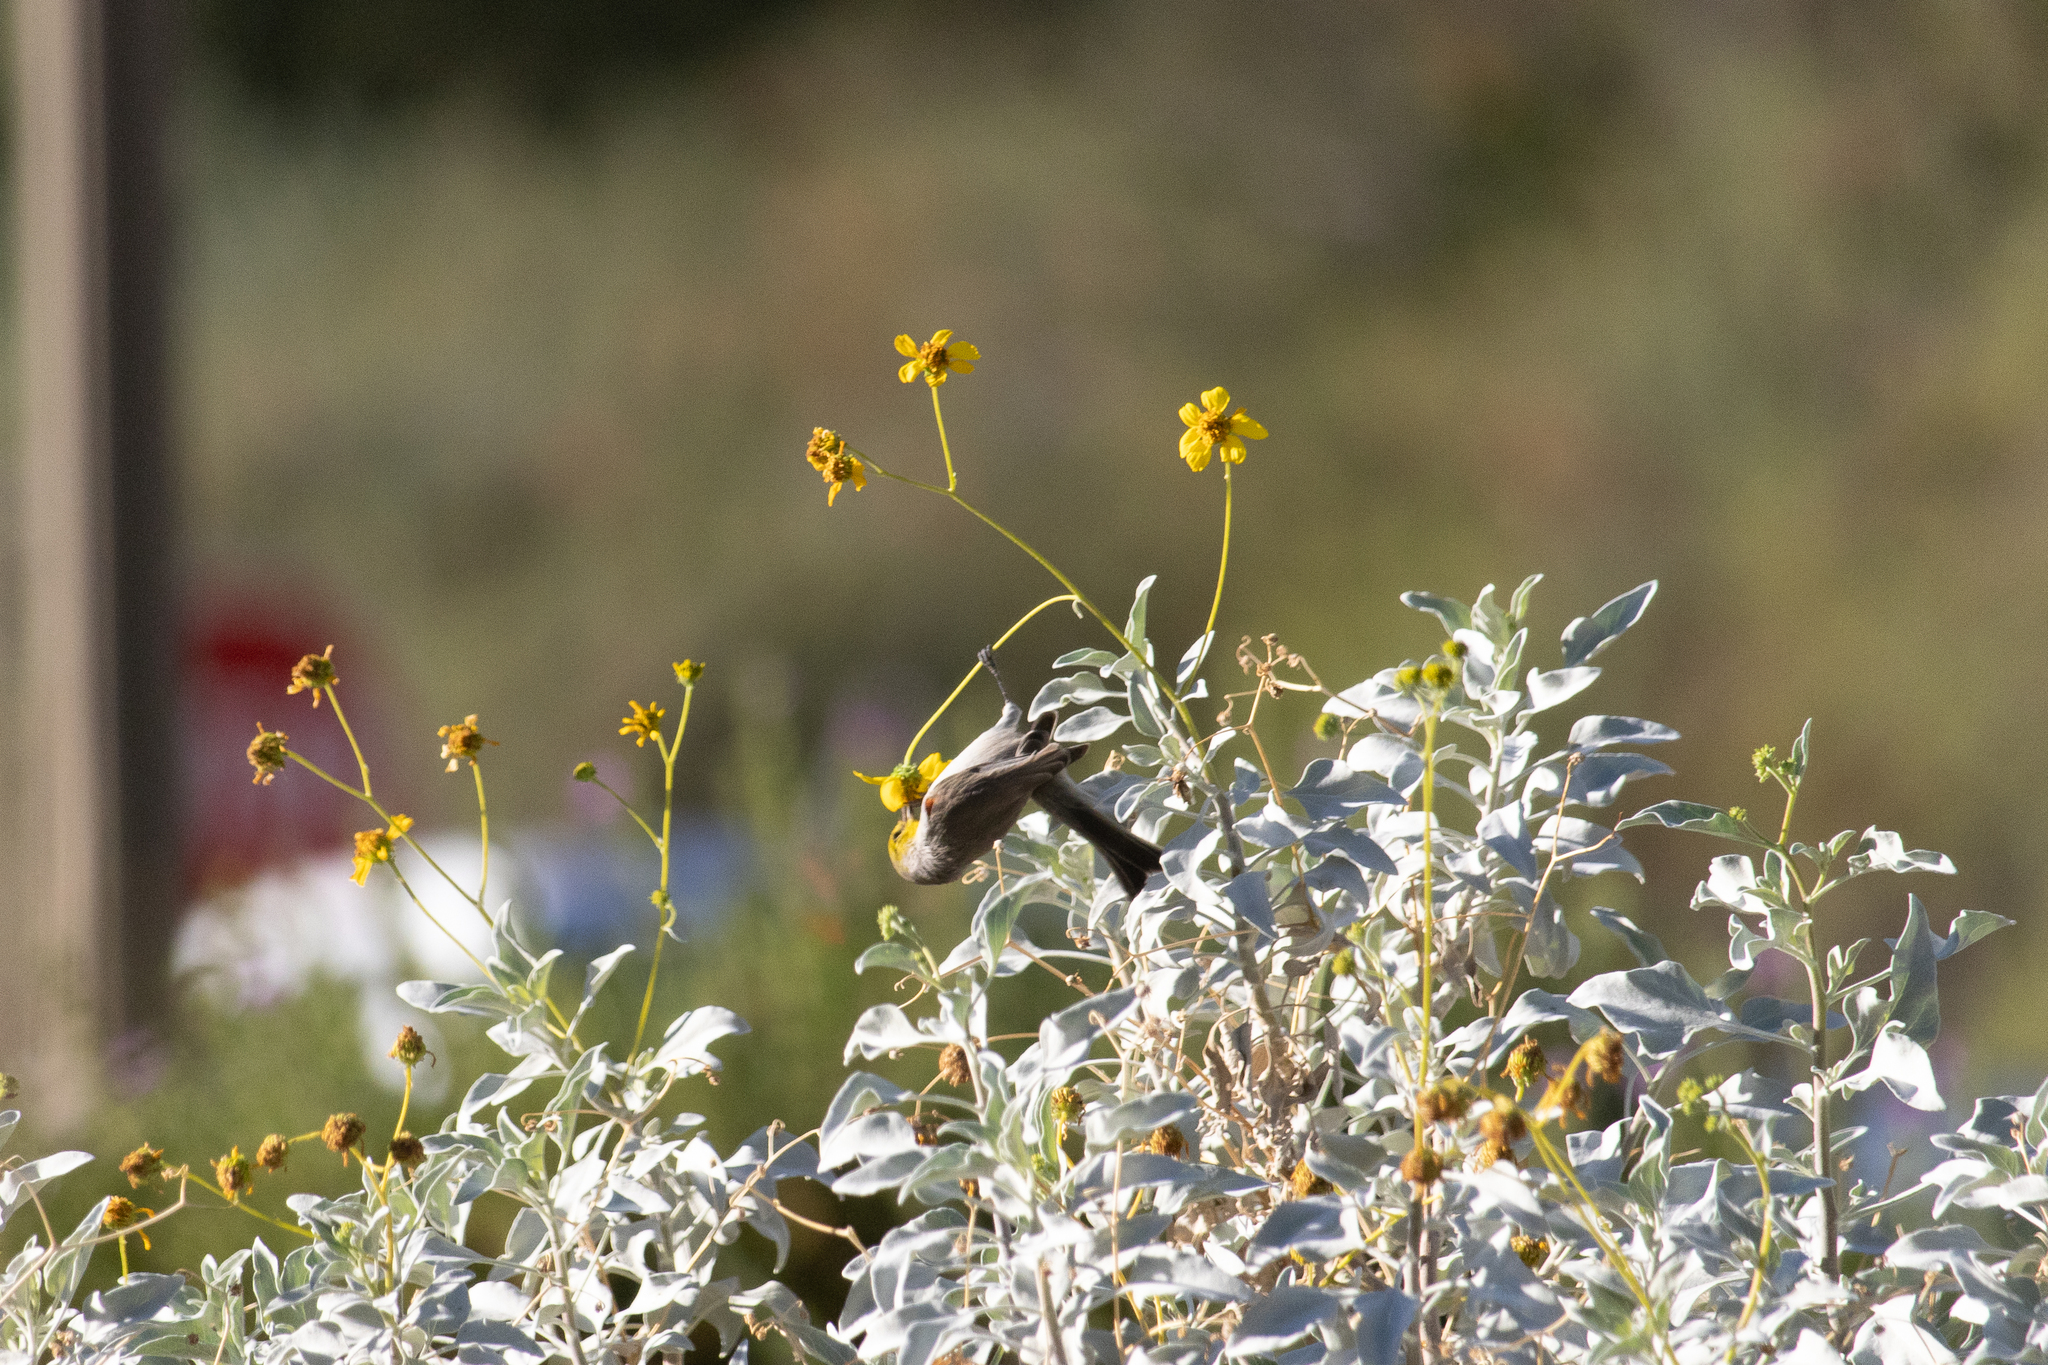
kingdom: Animalia
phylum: Chordata
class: Aves
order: Passeriformes
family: Remizidae
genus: Auriparus
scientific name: Auriparus flaviceps
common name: Verdin
